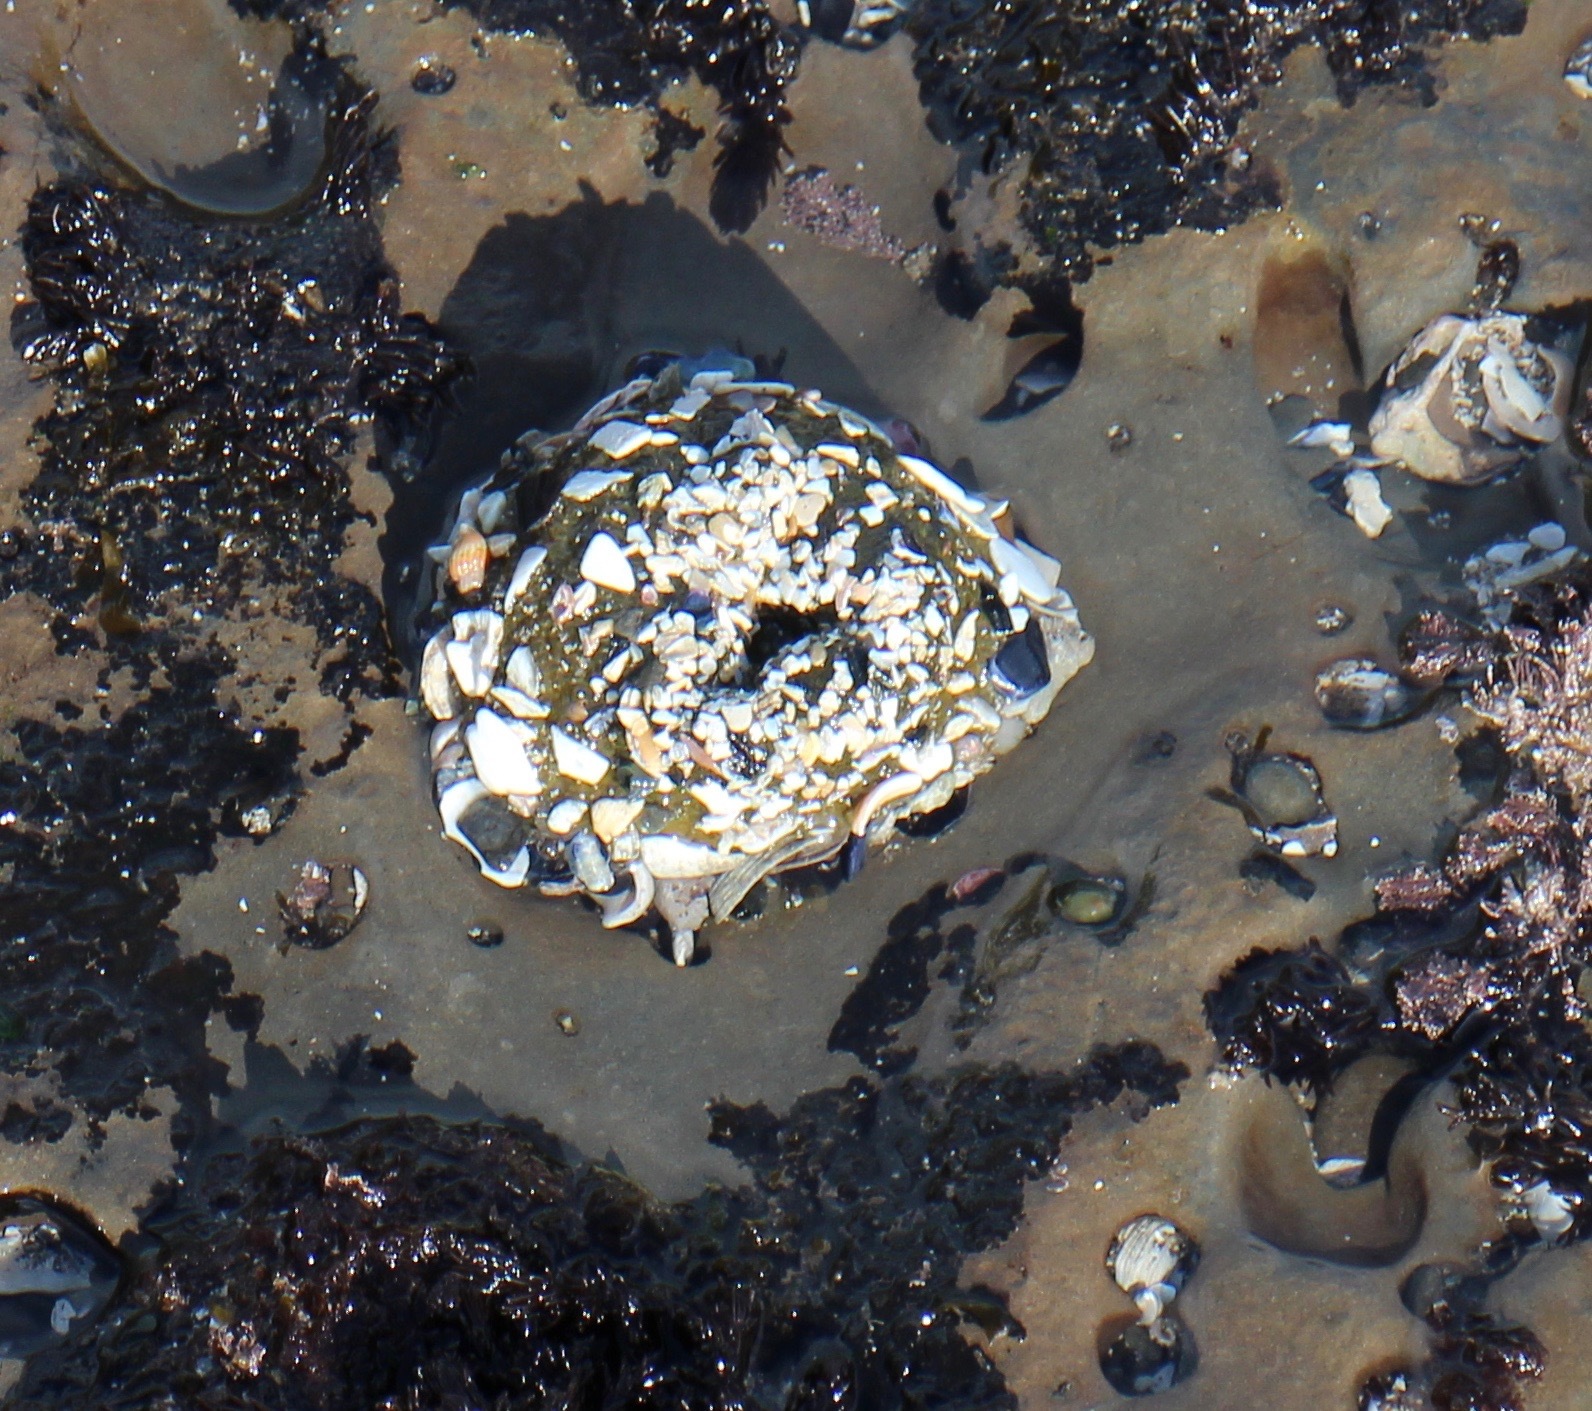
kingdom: Animalia
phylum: Cnidaria
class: Anthozoa
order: Actiniaria
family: Actiniidae
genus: Anthopleura
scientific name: Anthopleura
